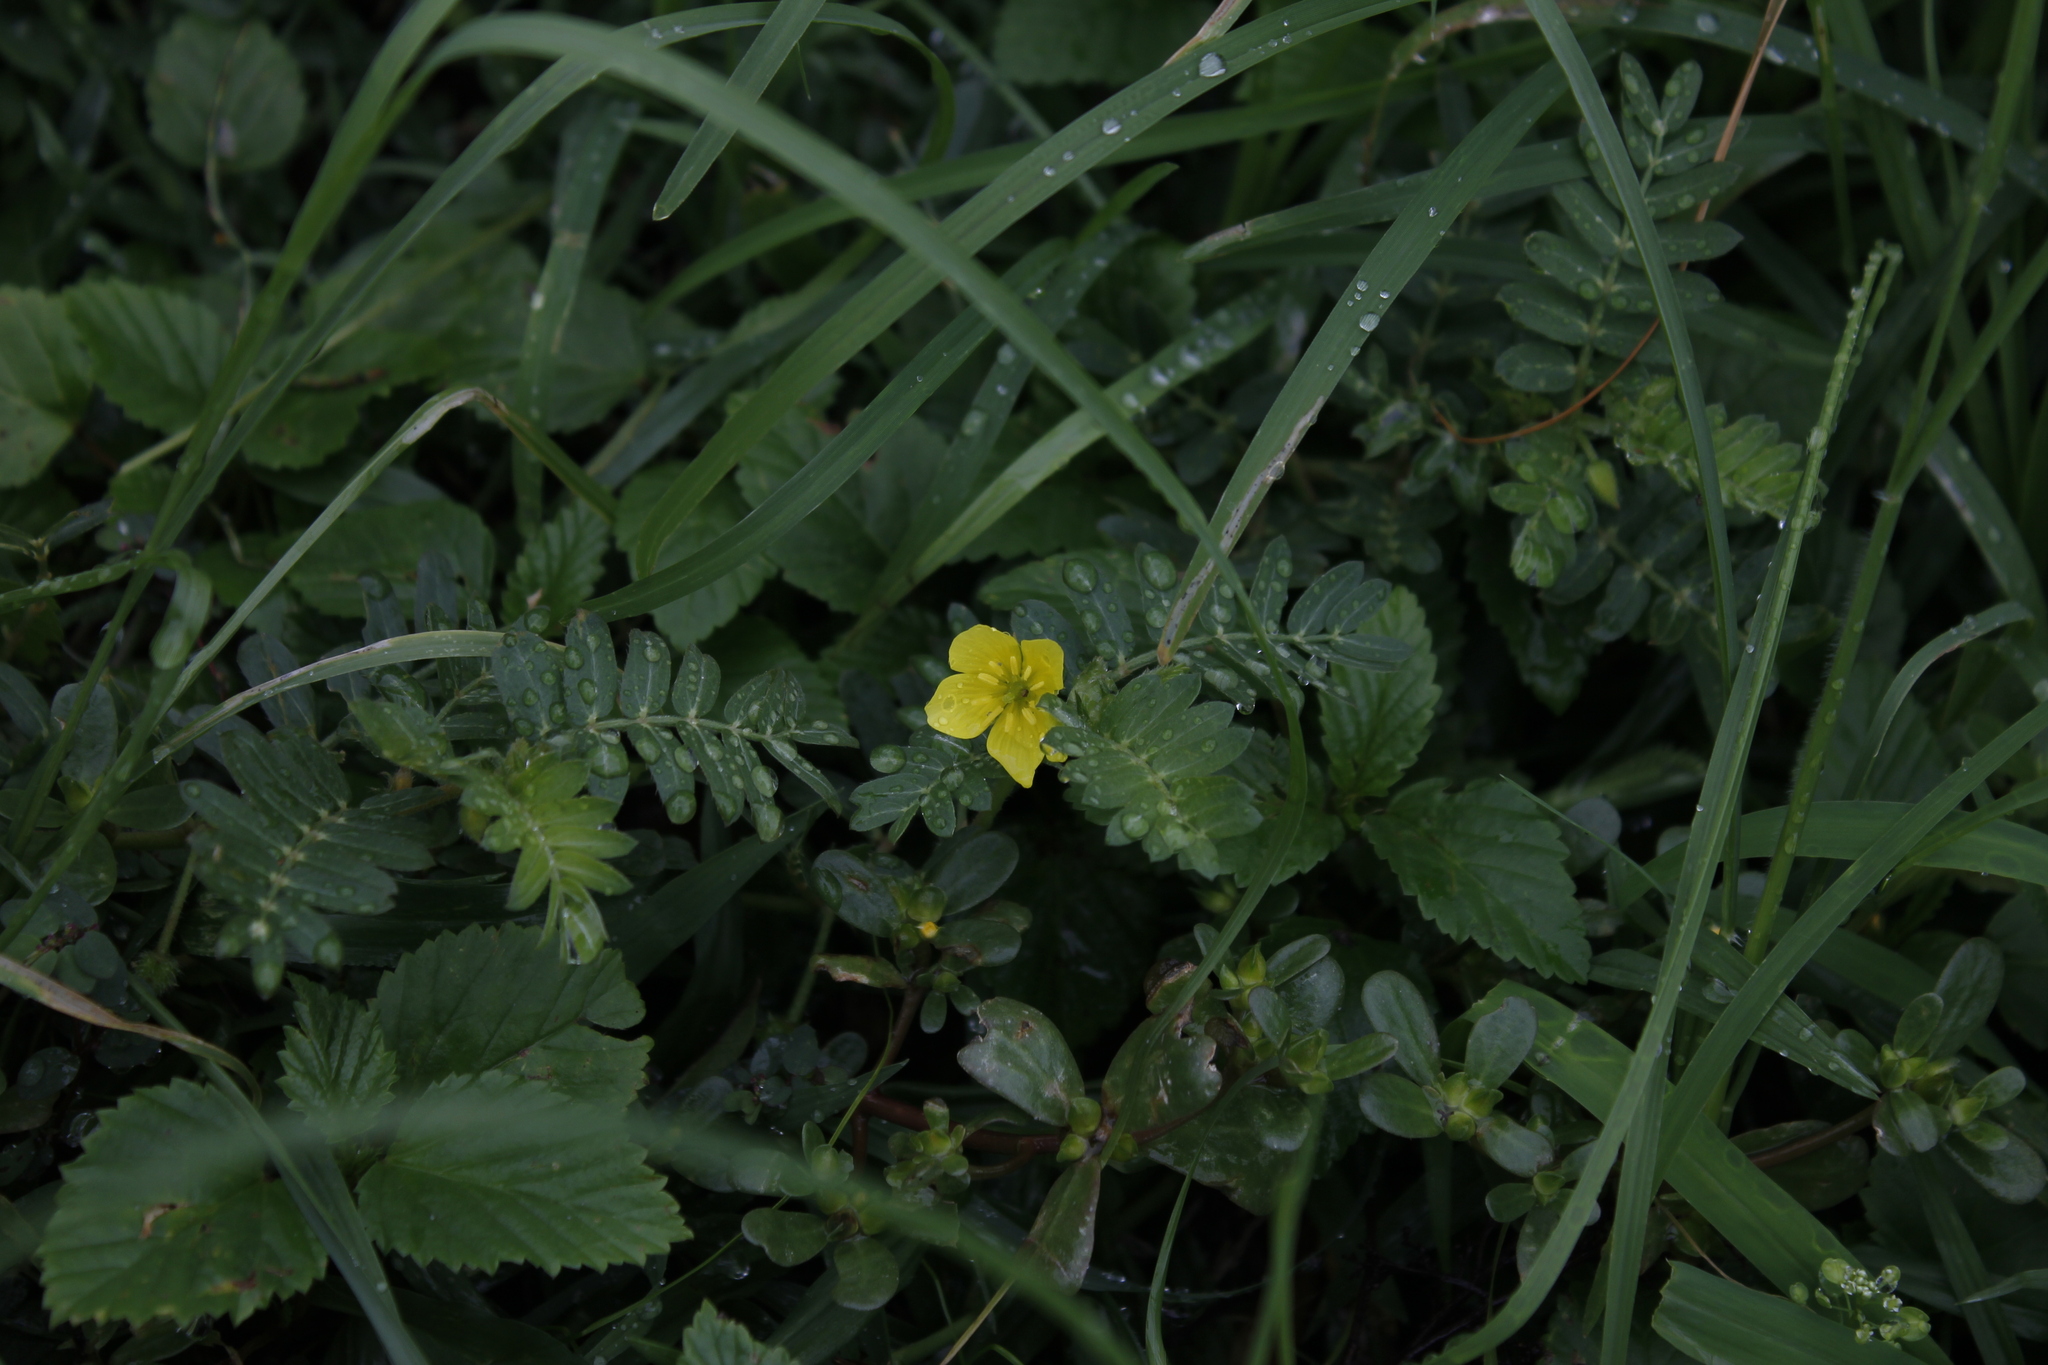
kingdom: Plantae
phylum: Tracheophyta
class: Magnoliopsida
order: Zygophyllales
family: Zygophyllaceae
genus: Tribulus
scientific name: Tribulus cistoides
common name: Jamaican feverplant
